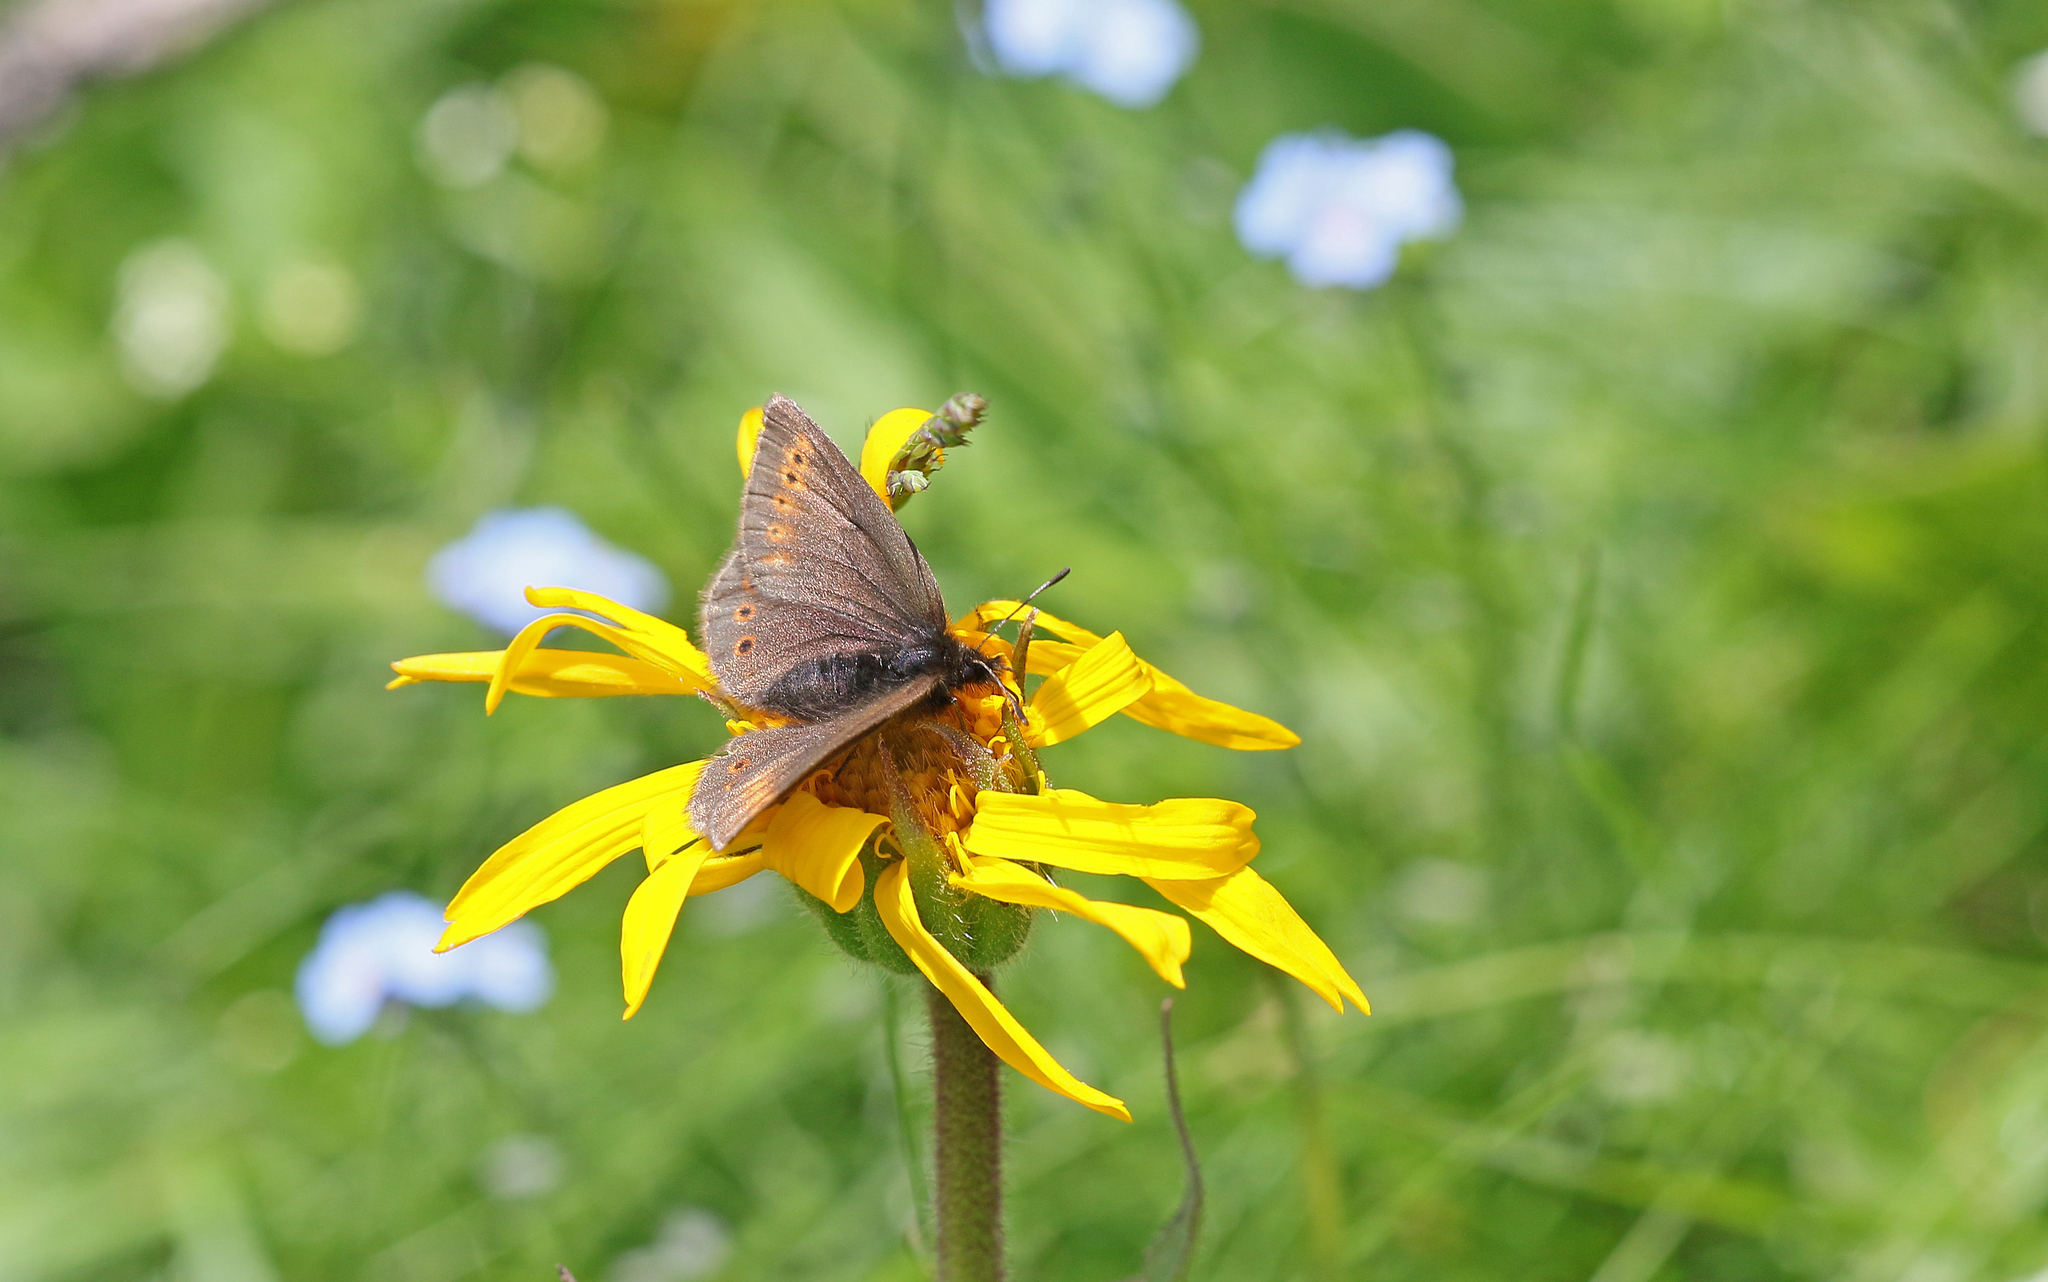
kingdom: Animalia
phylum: Arthropoda
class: Insecta
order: Lepidoptera
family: Nymphalidae
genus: Erebia
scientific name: Erebia flavofasciata
